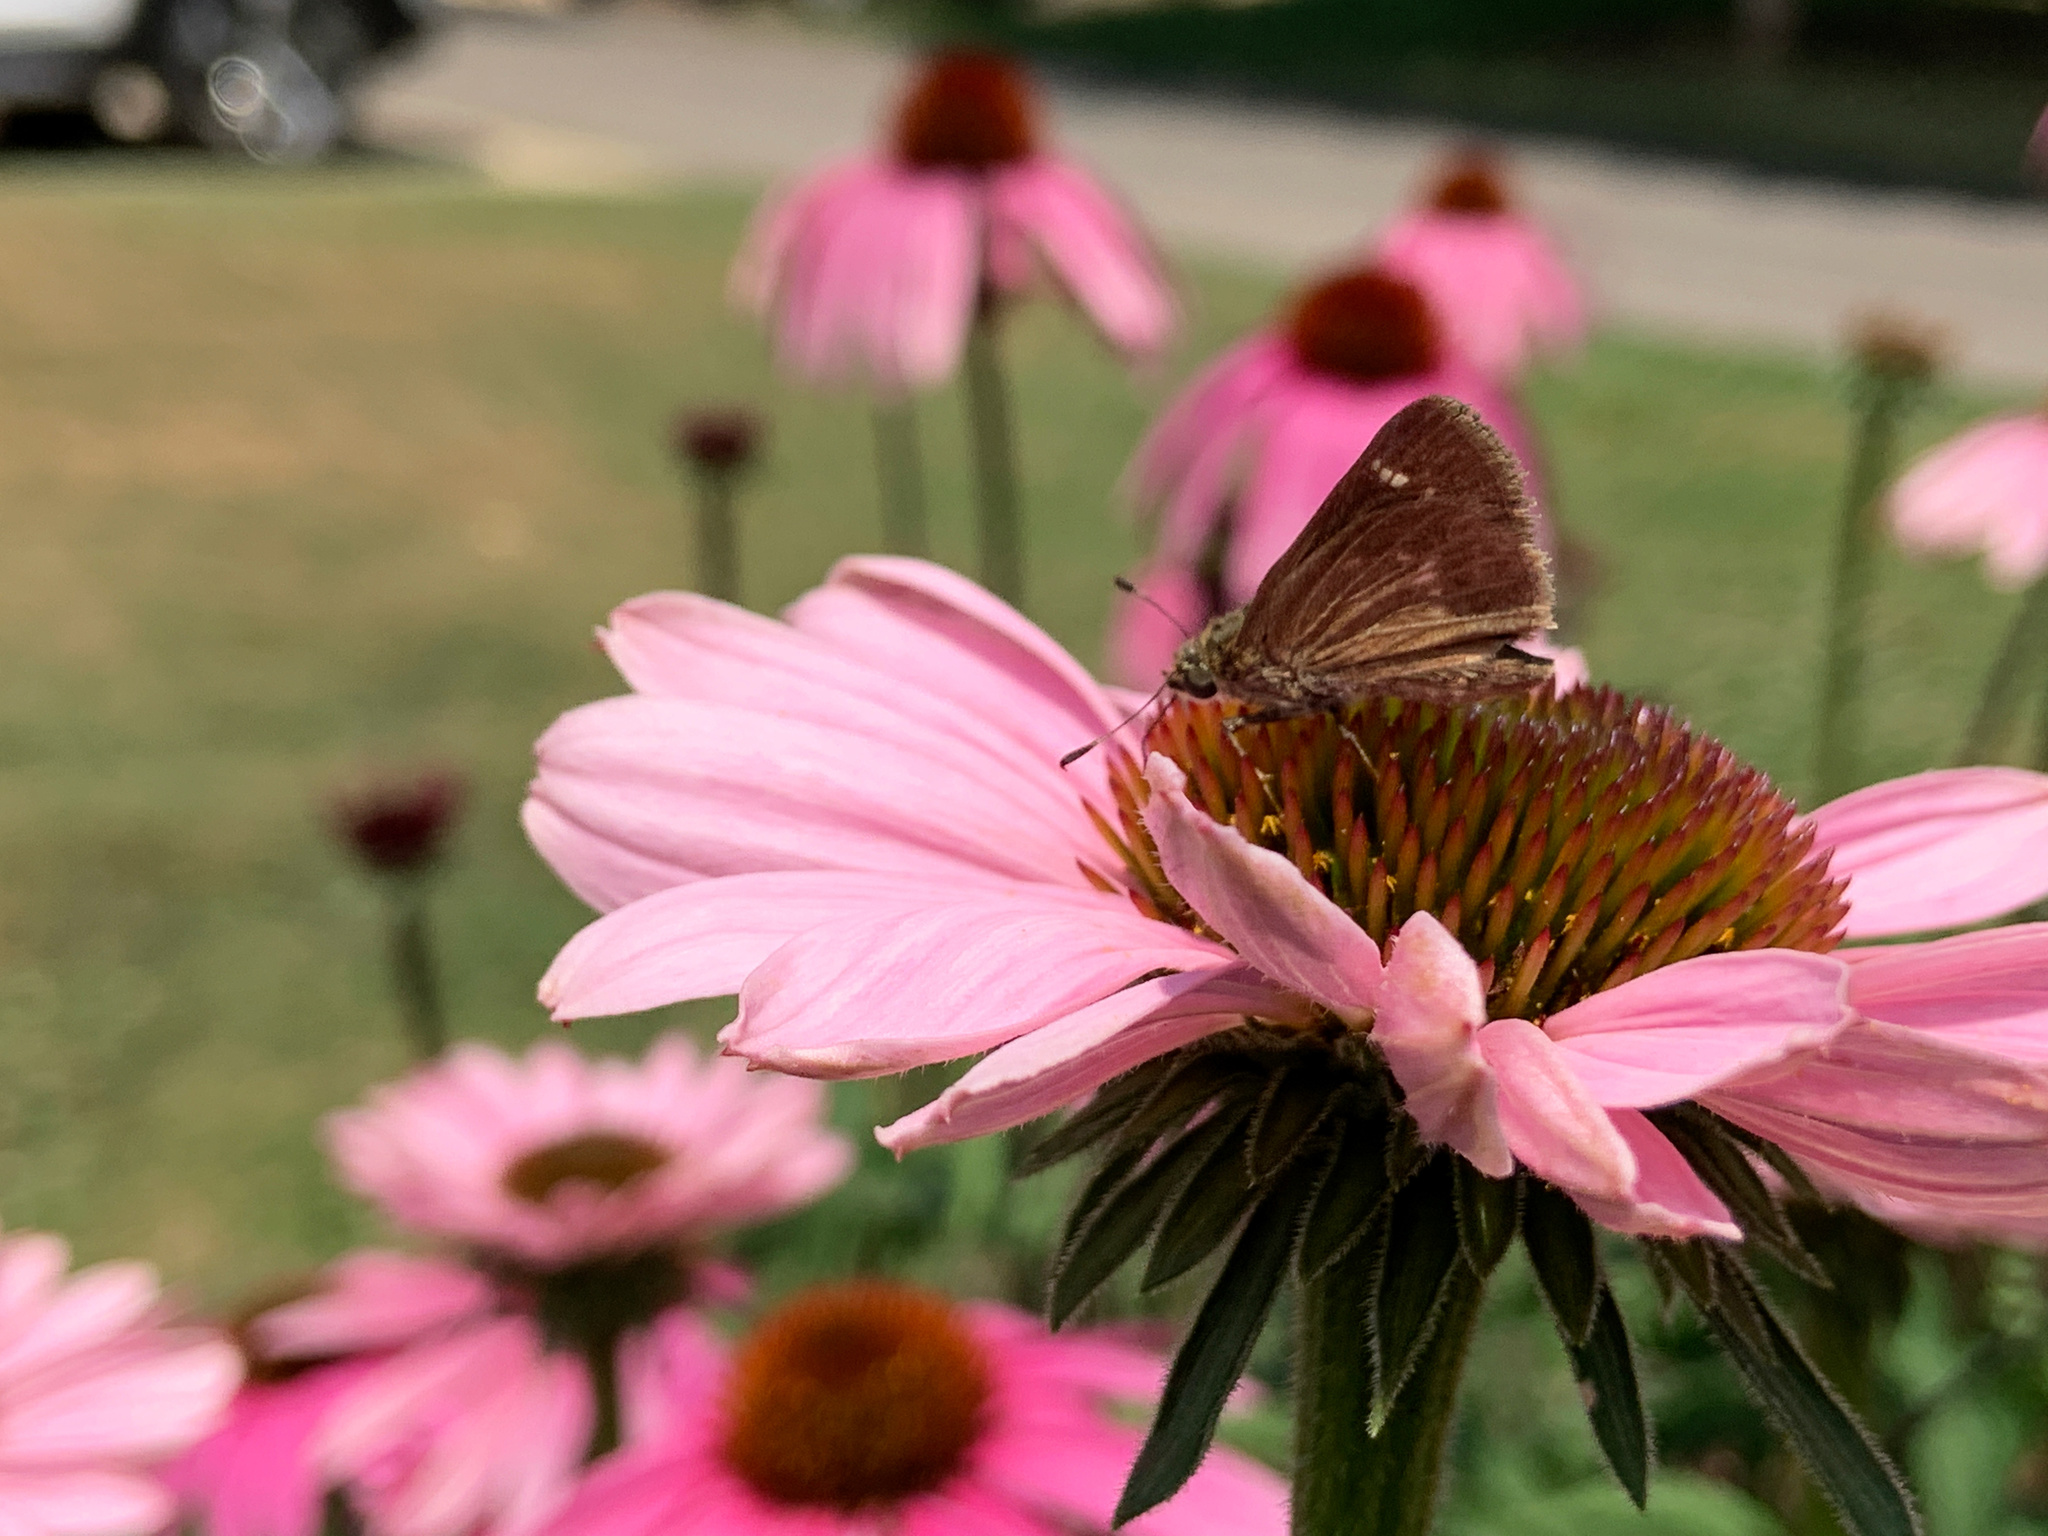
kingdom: Animalia
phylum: Arthropoda
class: Insecta
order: Lepidoptera
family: Hesperiidae
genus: Vernia
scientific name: Vernia verna
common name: Little glassywing
